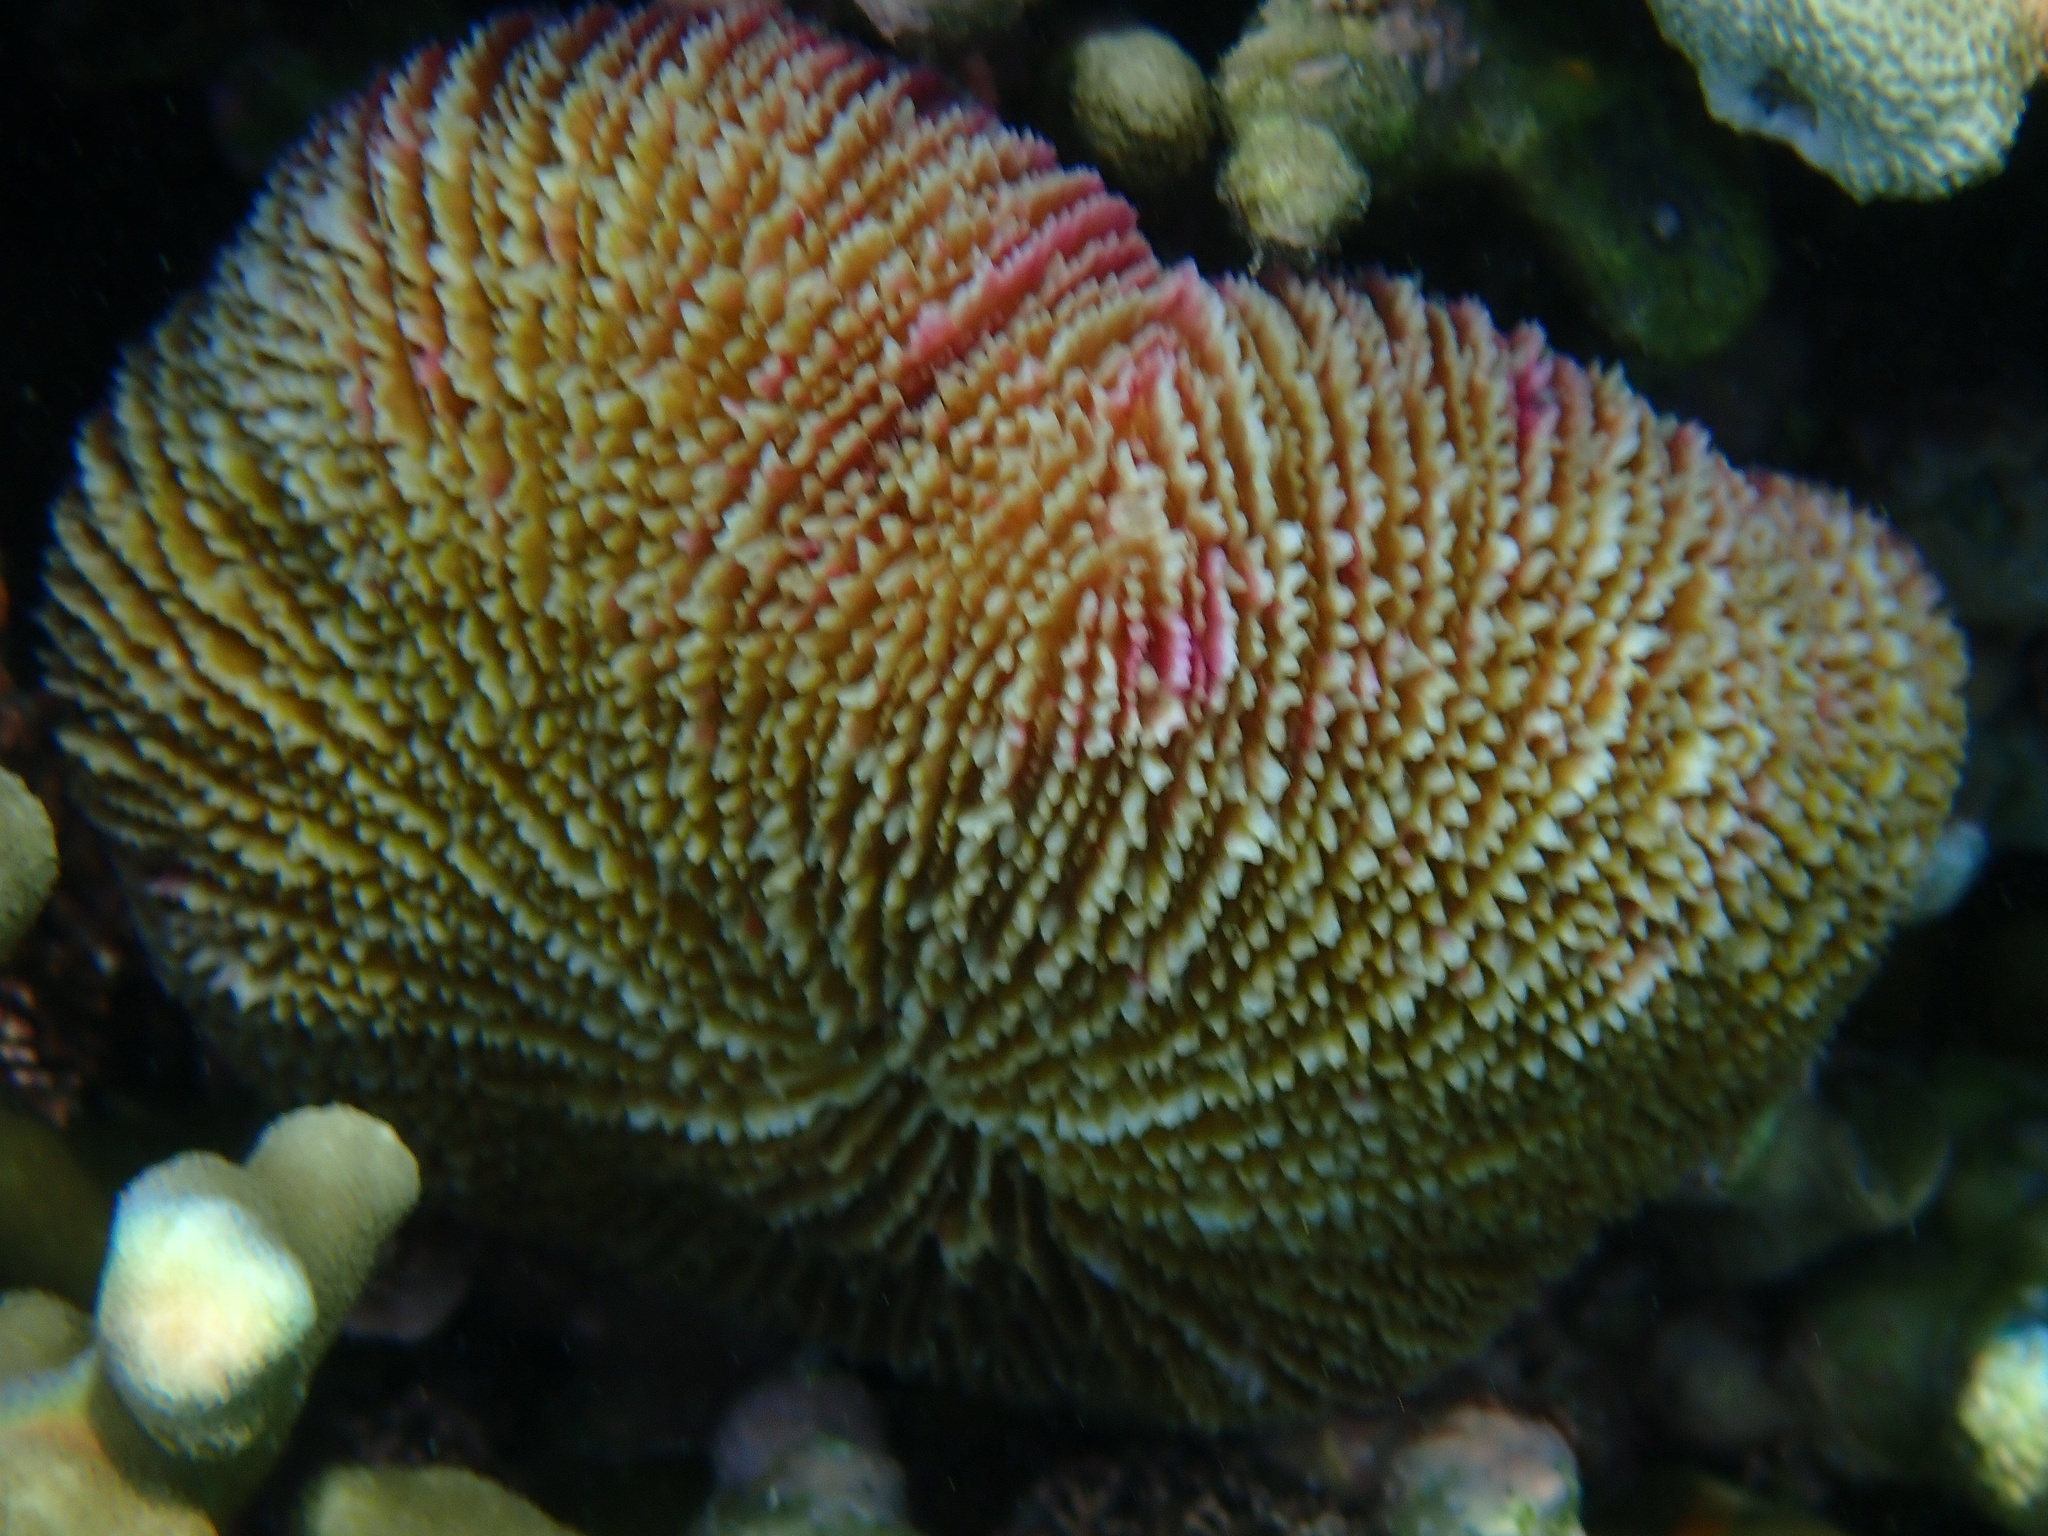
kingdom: Animalia
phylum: Cnidaria
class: Anthozoa
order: Scleractinia
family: Fungiidae
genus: Fungia
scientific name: Fungia fungites
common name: Mushroom coral
